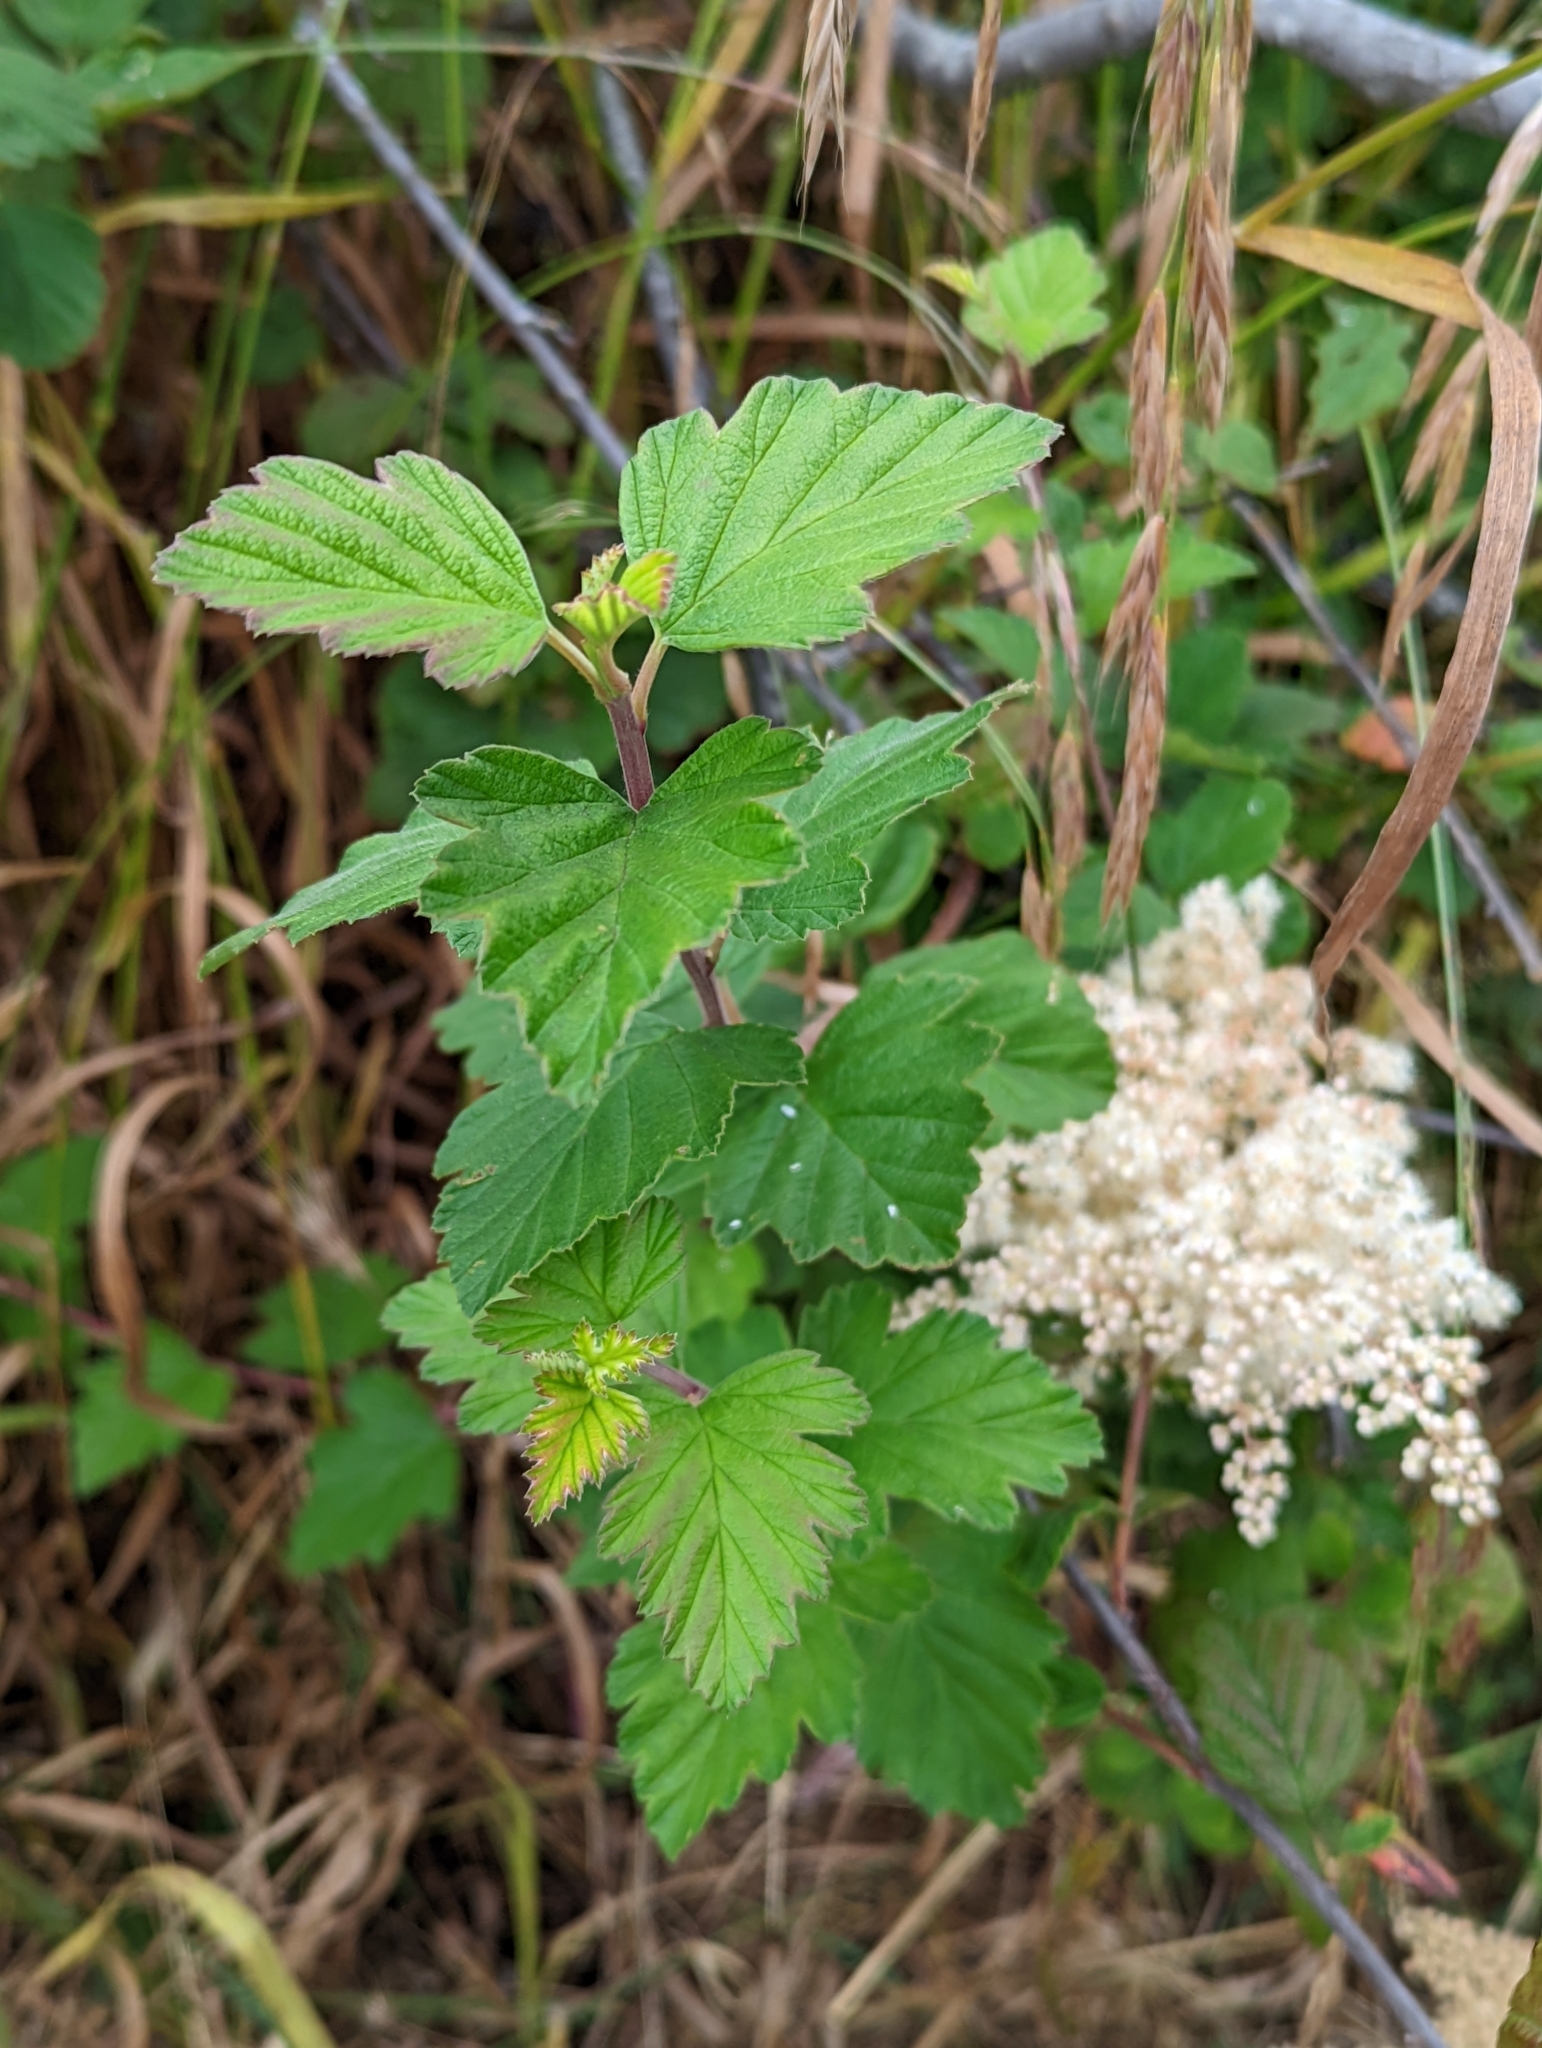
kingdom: Plantae
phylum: Tracheophyta
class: Magnoliopsida
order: Rosales
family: Rosaceae
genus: Holodiscus
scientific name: Holodiscus discolor
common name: Oceanspray
